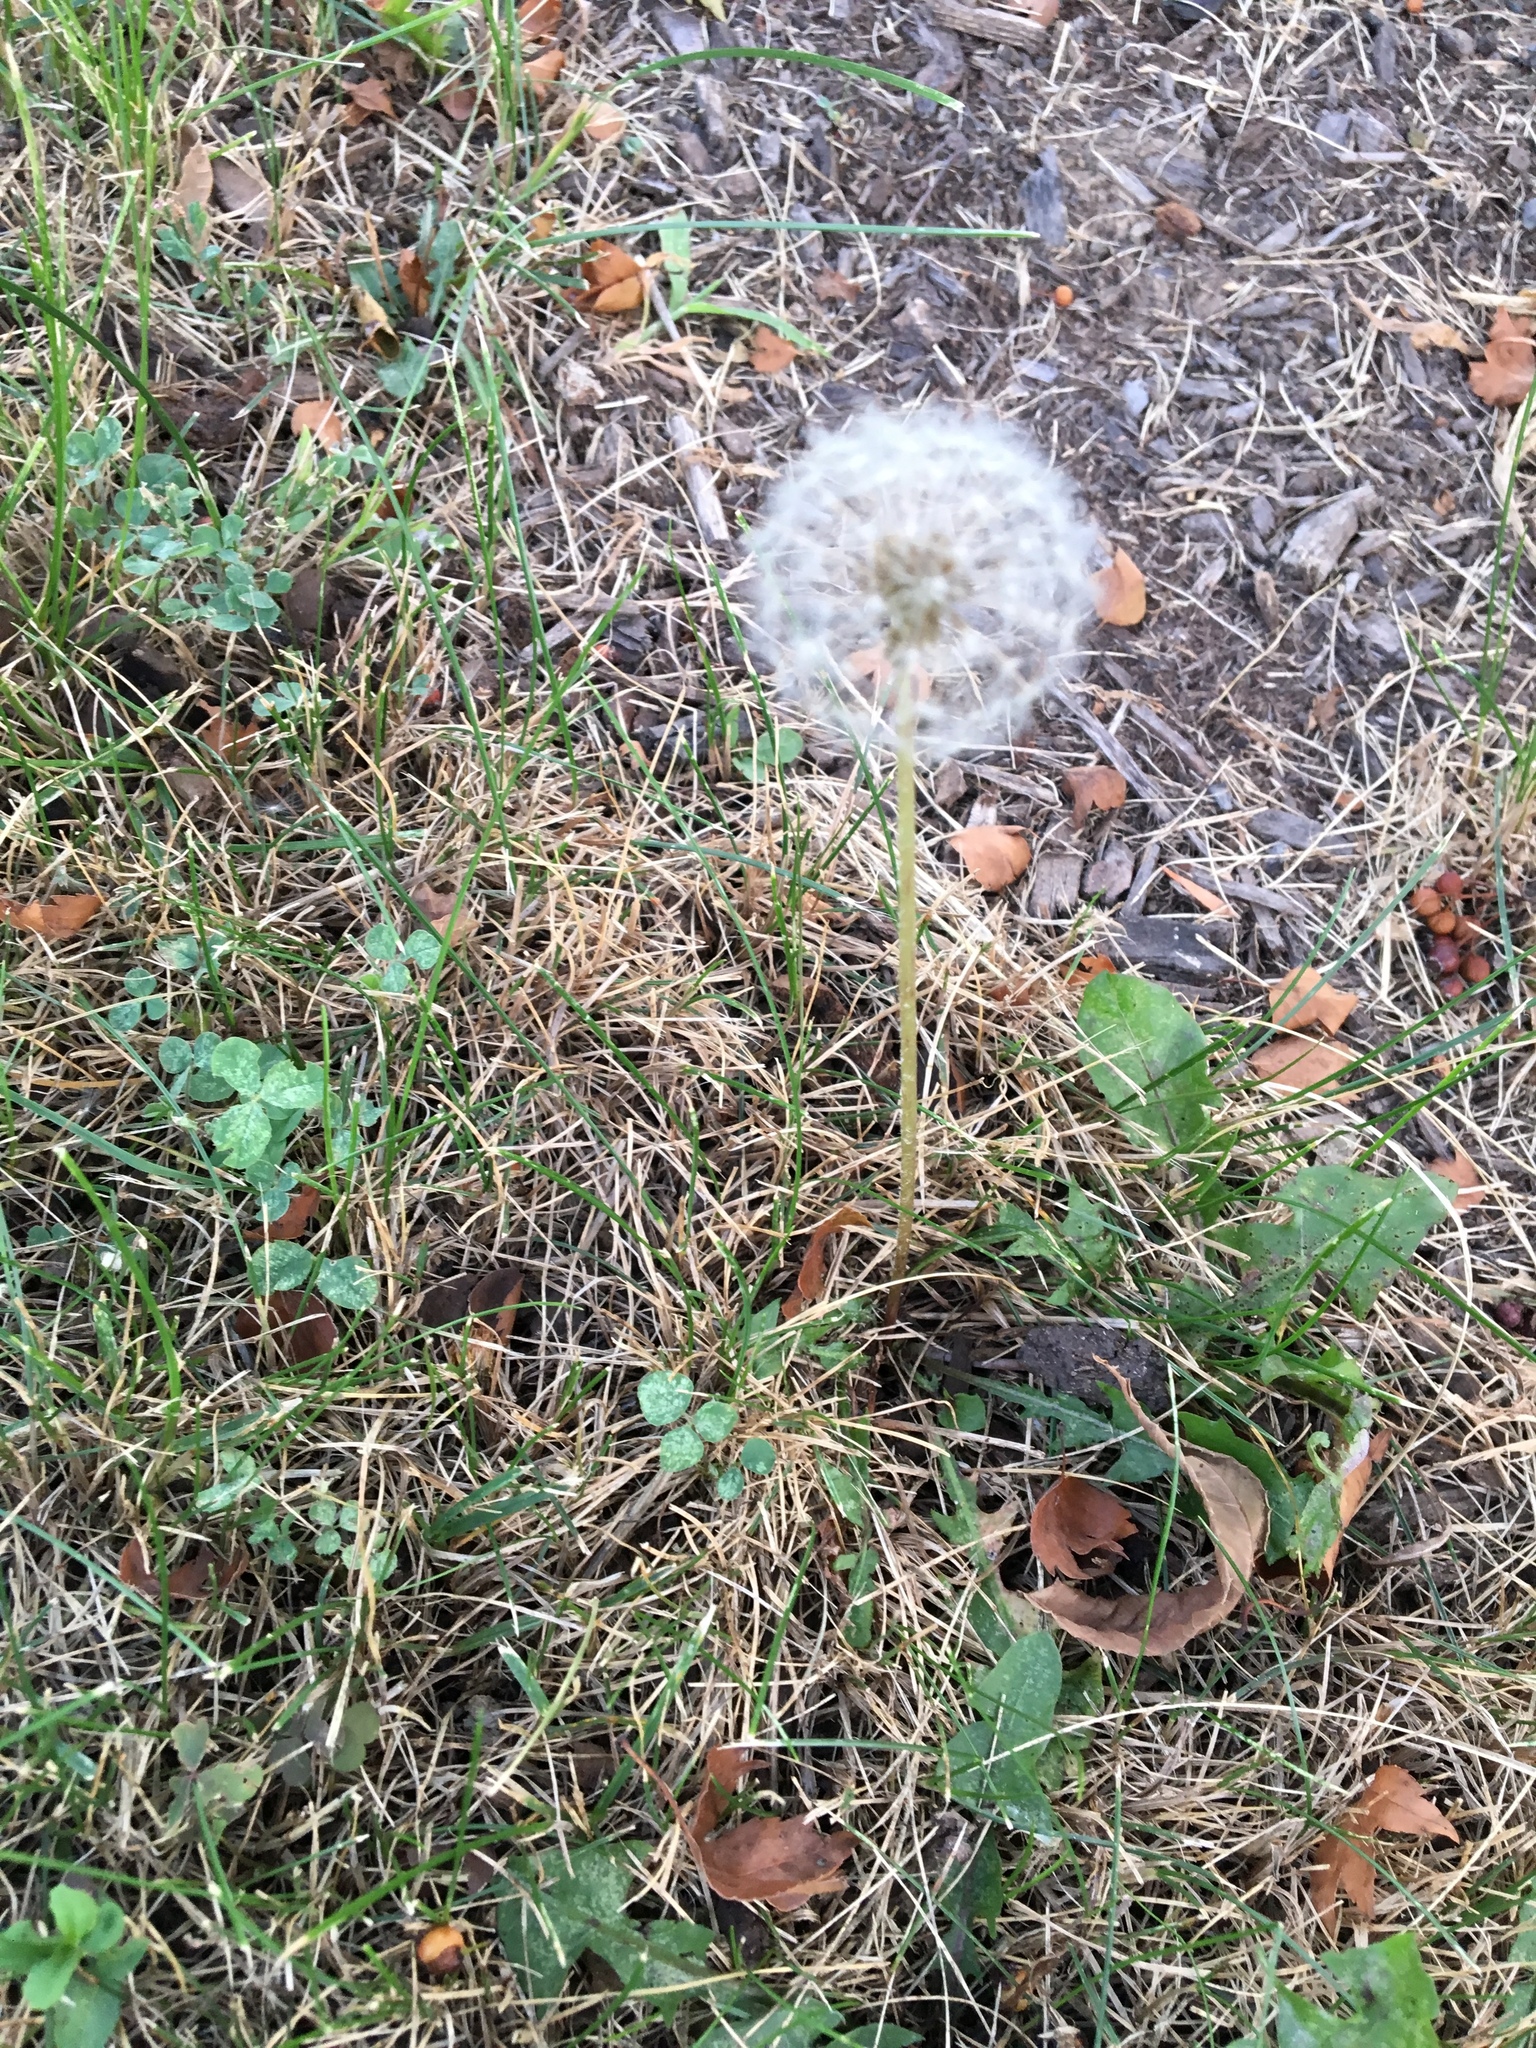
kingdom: Plantae
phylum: Tracheophyta
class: Magnoliopsida
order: Asterales
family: Asteraceae
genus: Taraxacum
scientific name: Taraxacum officinale
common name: Common dandelion
